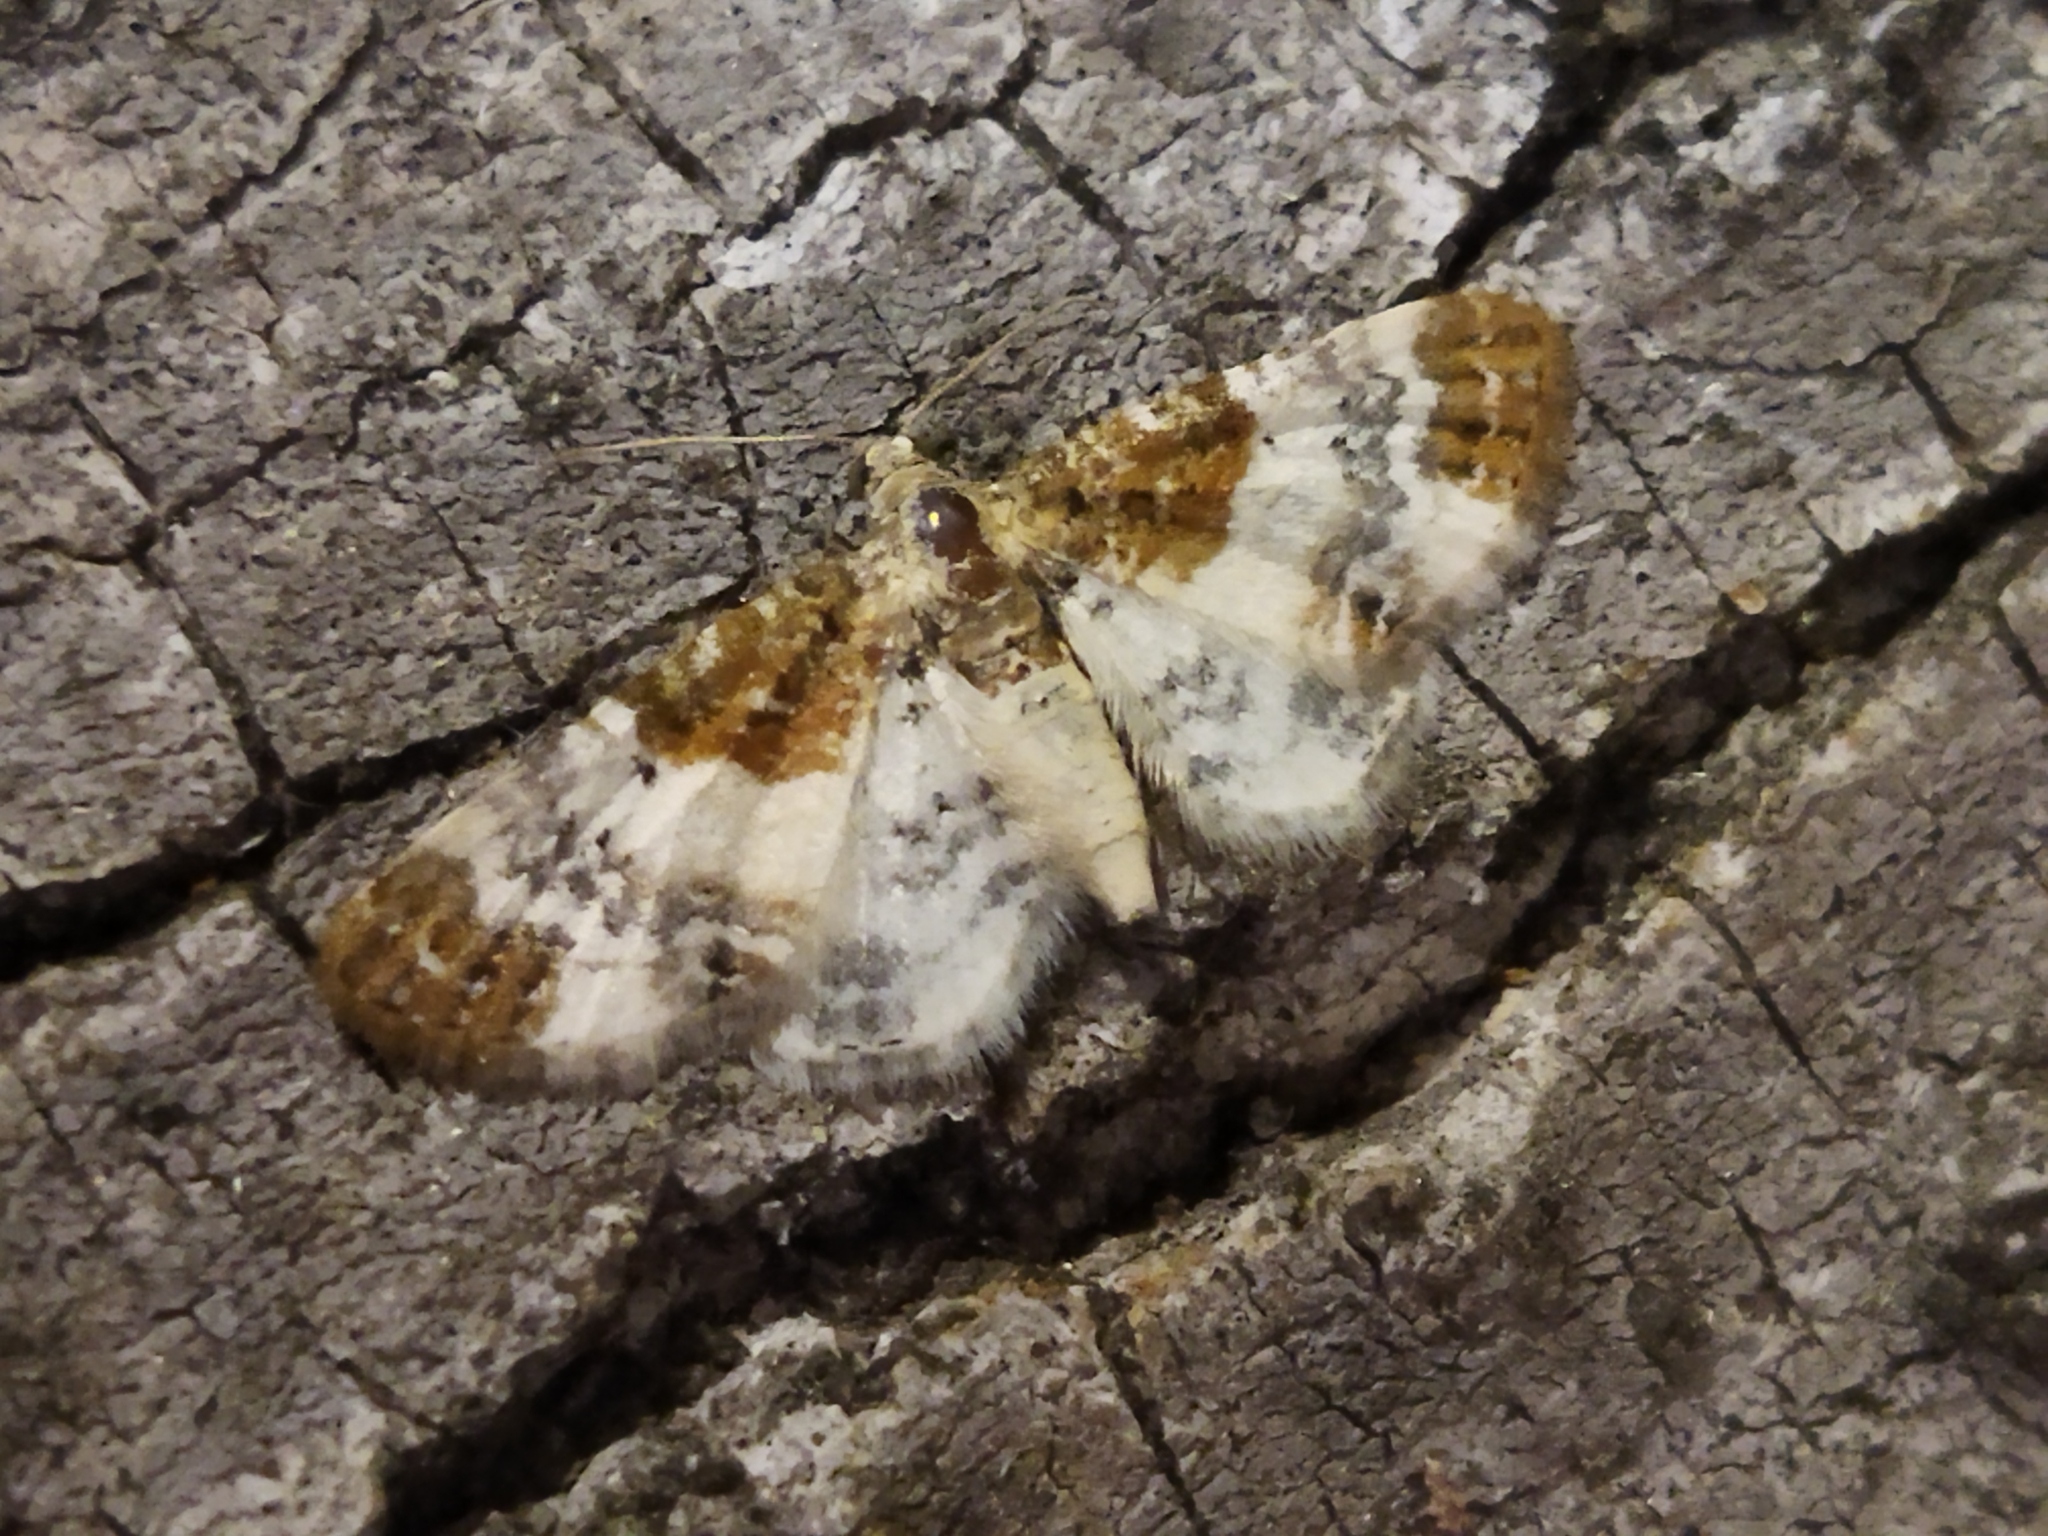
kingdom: Animalia
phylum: Arthropoda
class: Insecta
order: Lepidoptera
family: Geometridae
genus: Eupithecia
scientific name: Eupithecia breviculata
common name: Rusty-shouldered pug
